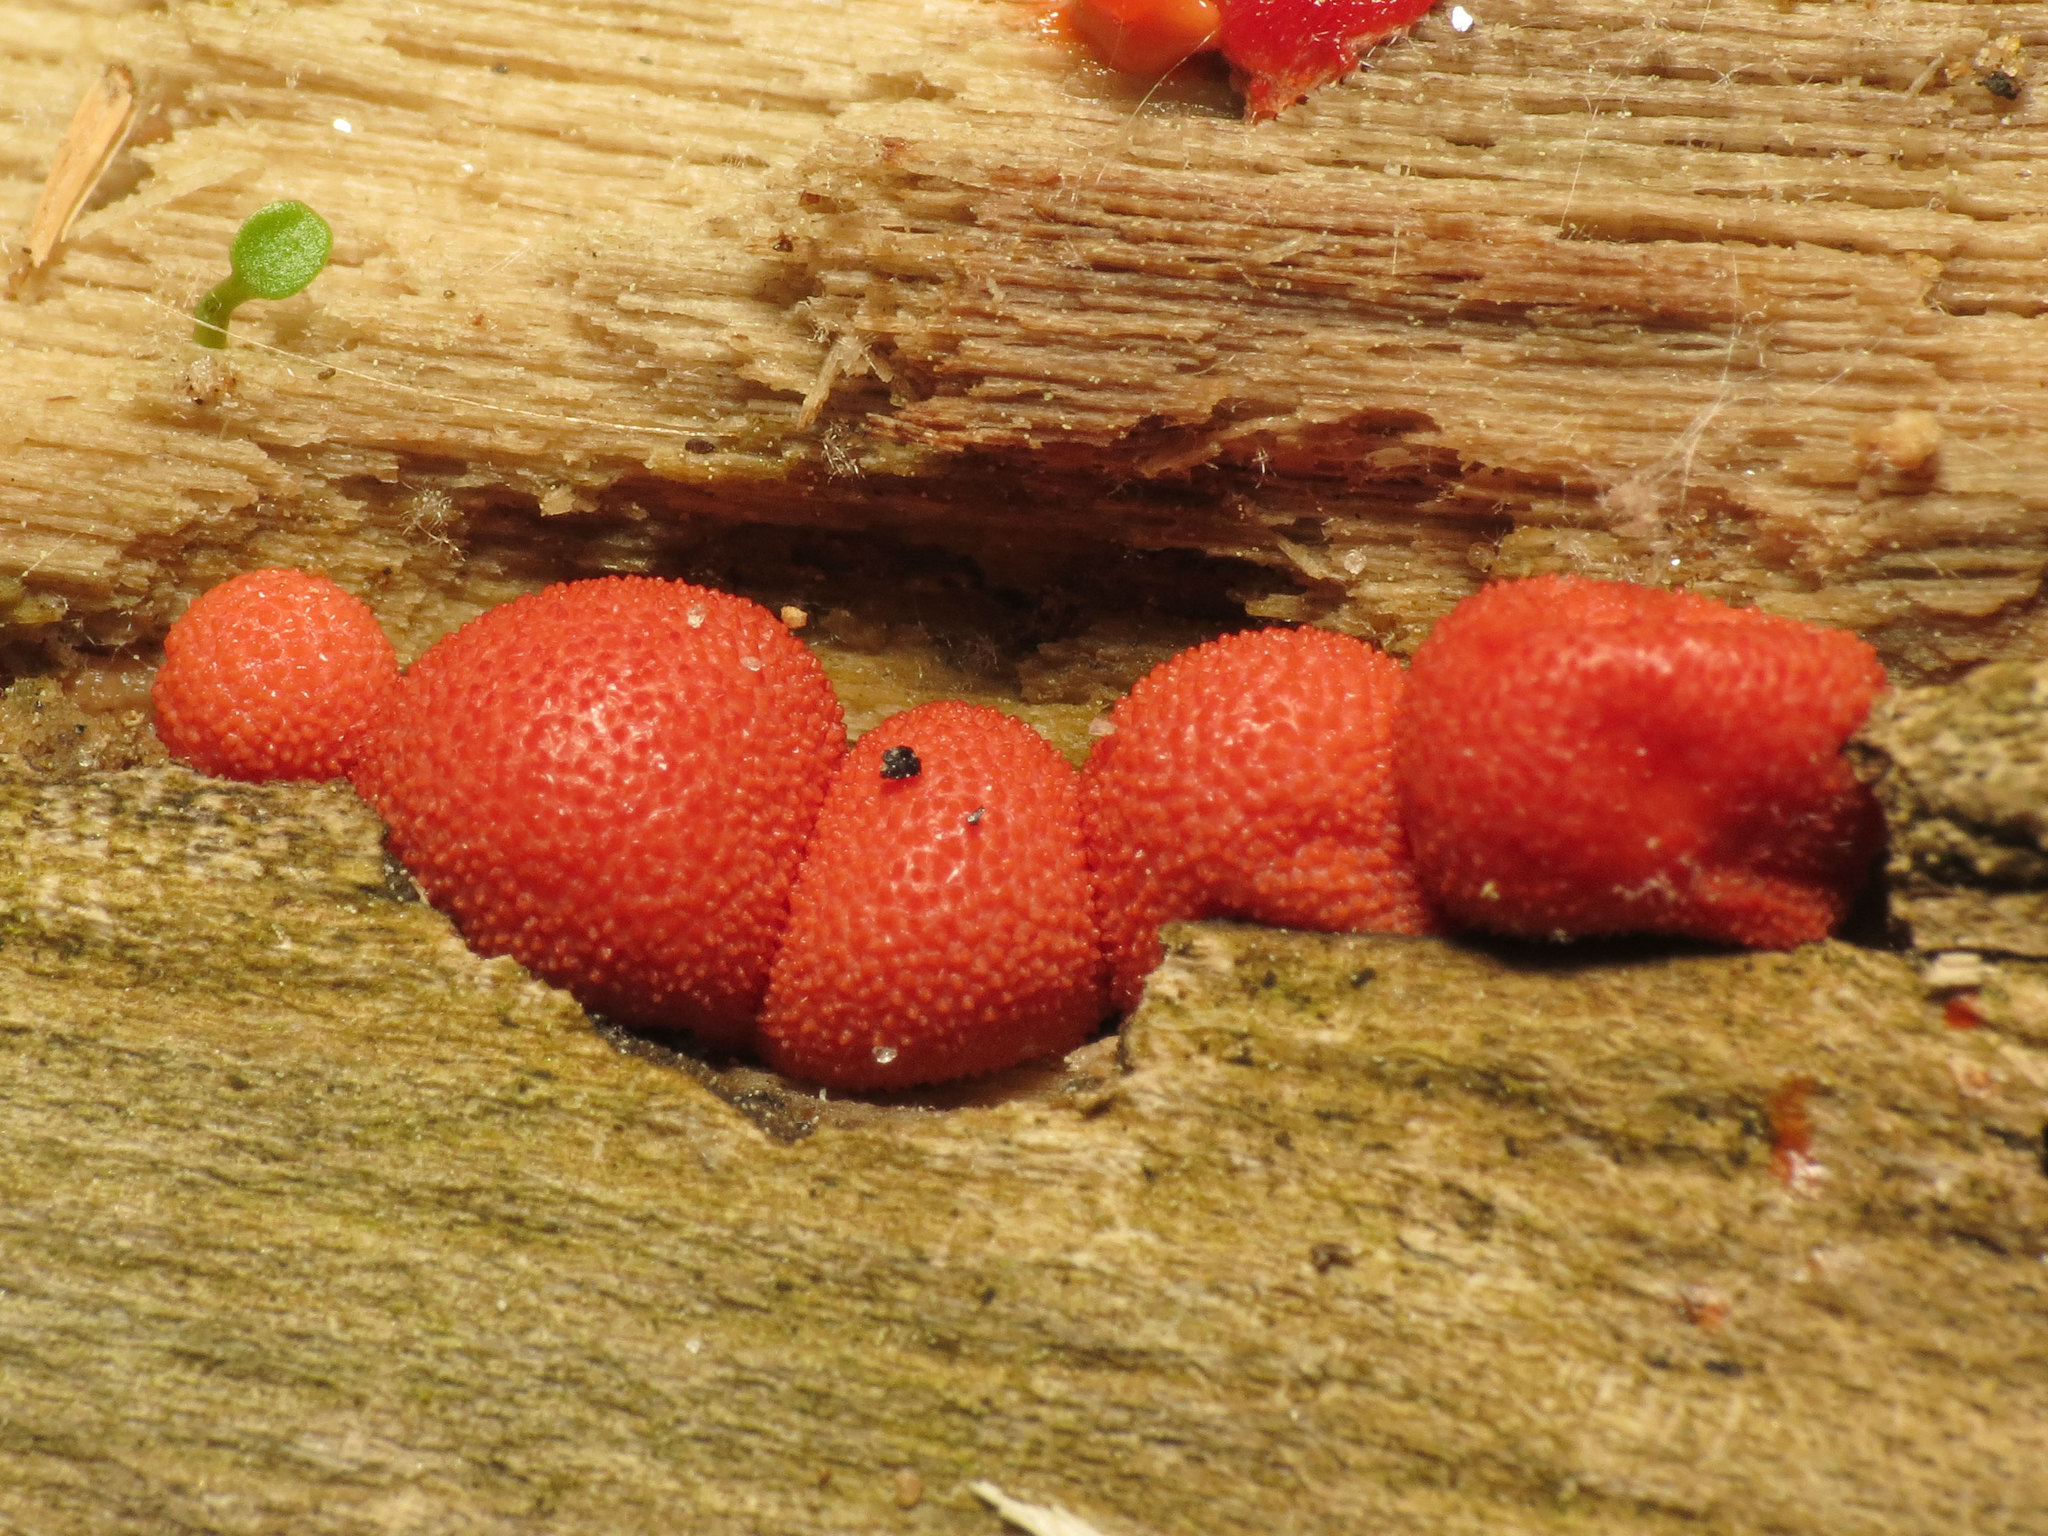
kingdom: Protozoa
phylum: Mycetozoa
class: Myxomycetes
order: Cribrariales
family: Tubiferaceae
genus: Lycogala
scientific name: Lycogala exiguum
